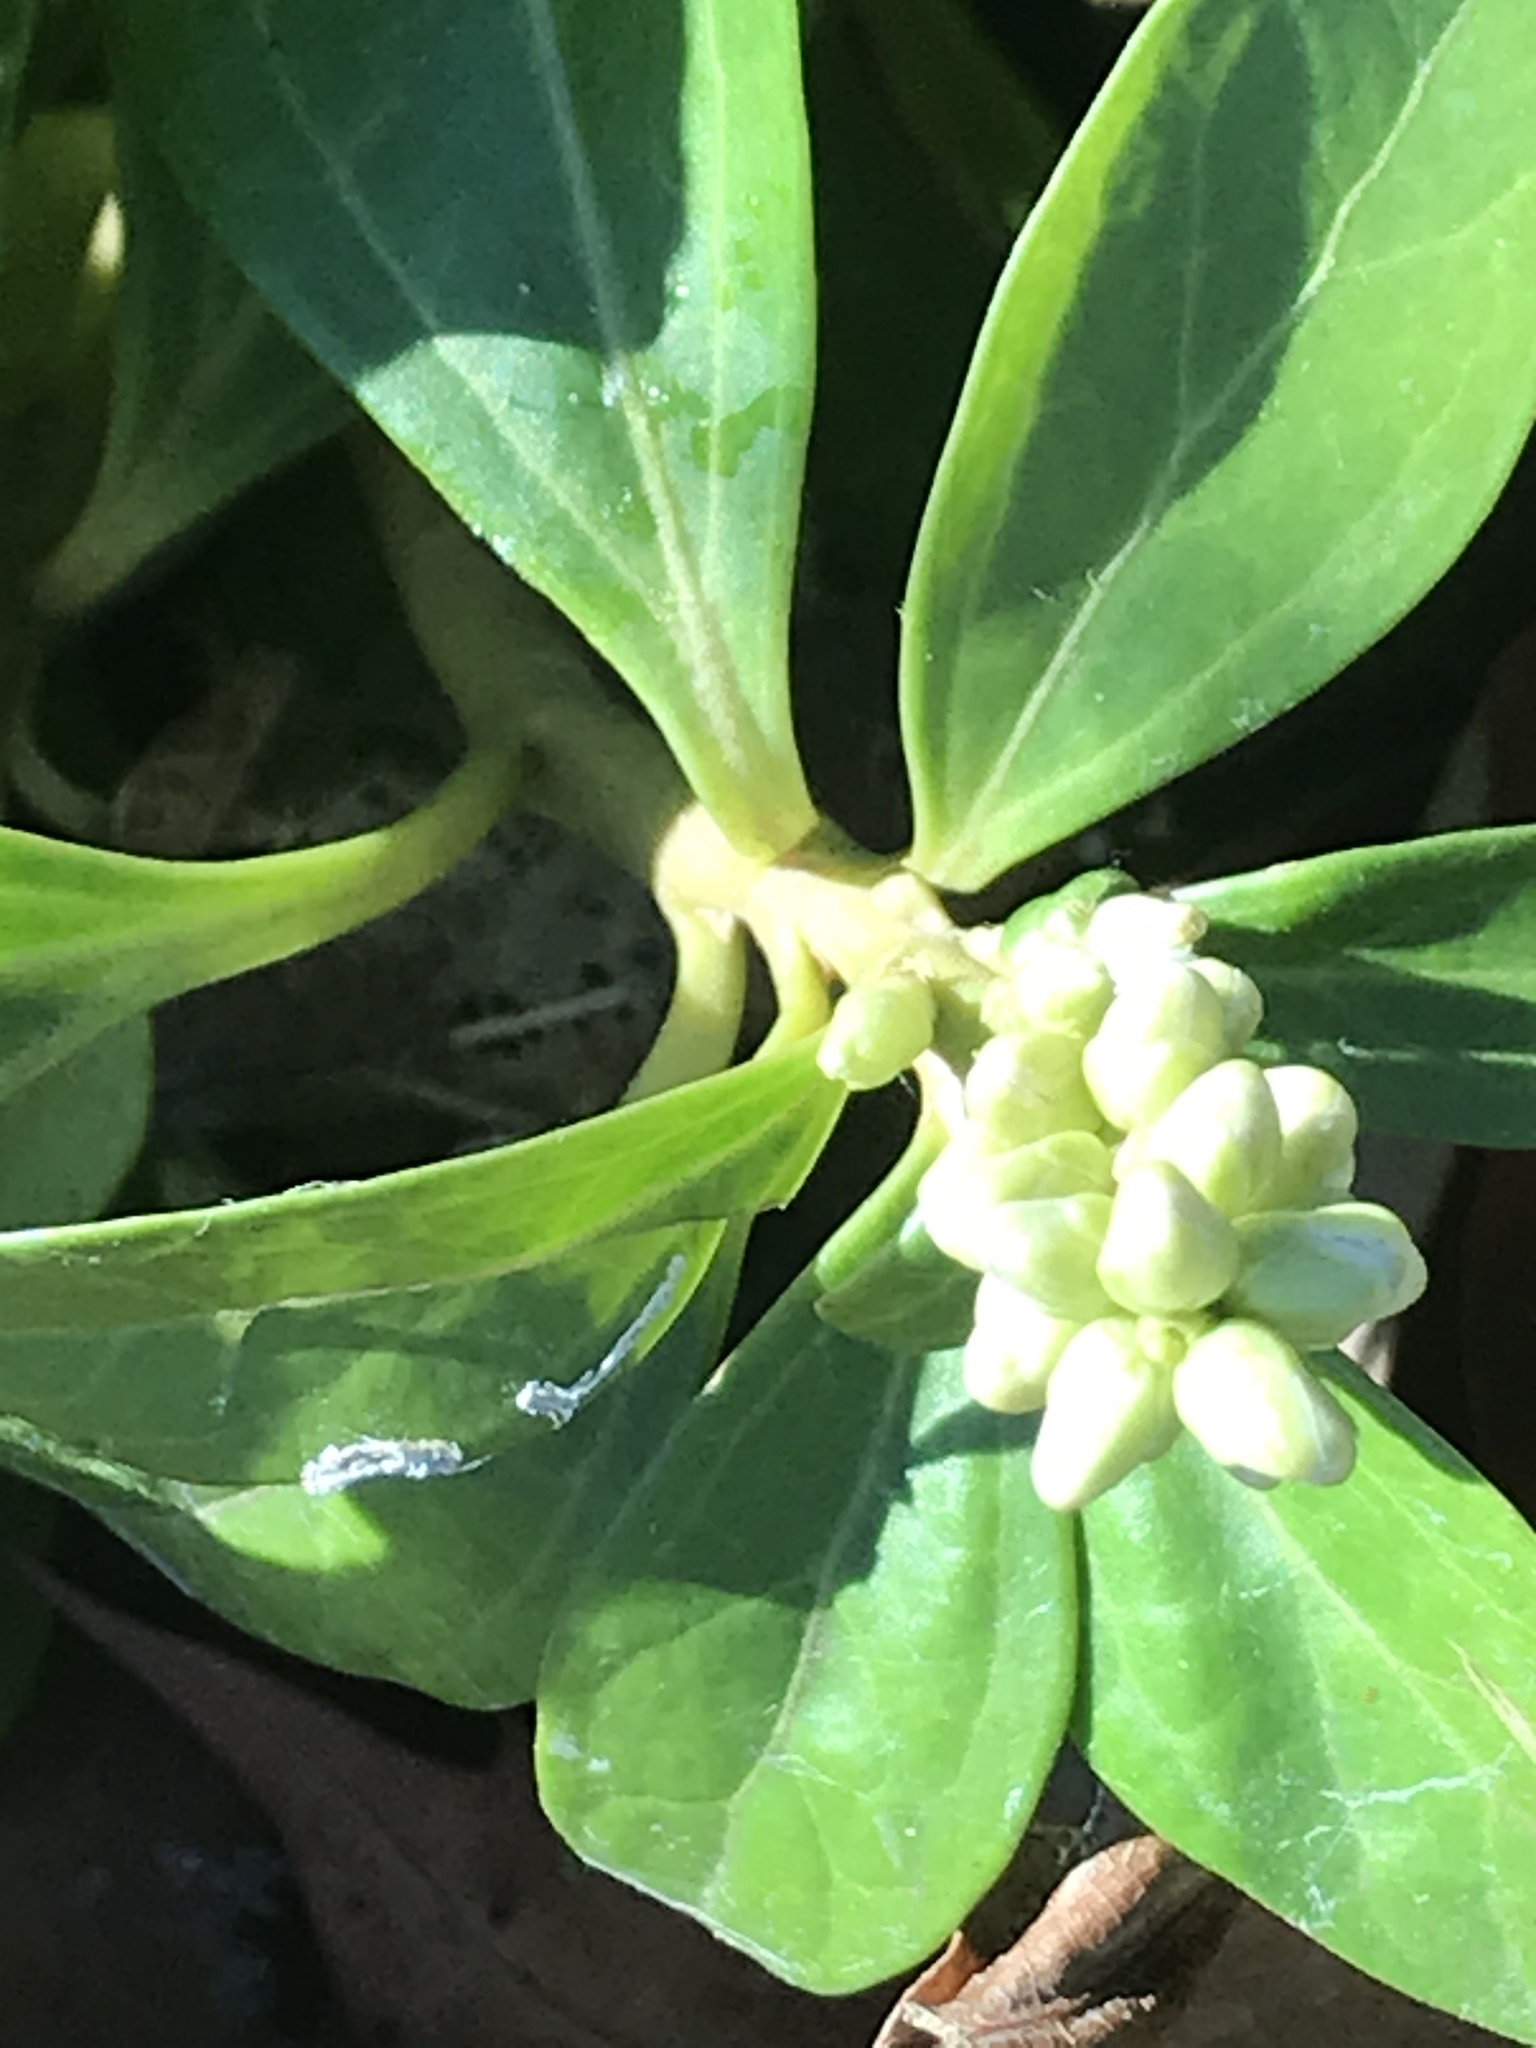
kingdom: Plantae
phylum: Tracheophyta
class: Magnoliopsida
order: Buxales
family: Buxaceae
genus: Pachysandra
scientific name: Pachysandra terminalis
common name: Japanese pachysandra
